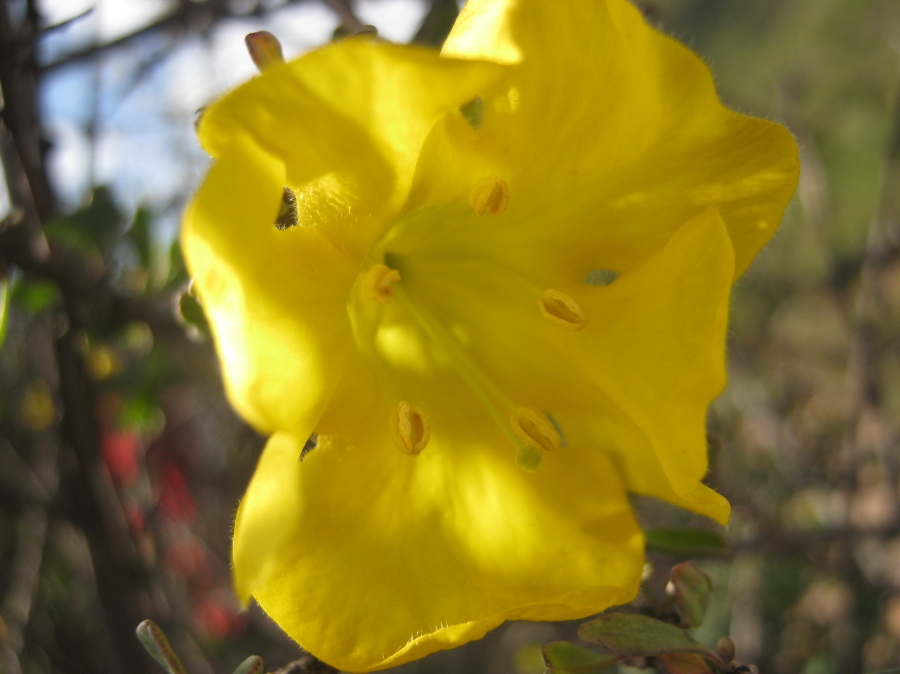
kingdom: Plantae
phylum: Tracheophyta
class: Magnoliopsida
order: Lamiales
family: Bignoniaceae
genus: Rhigozum
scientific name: Rhigozum obovatum
